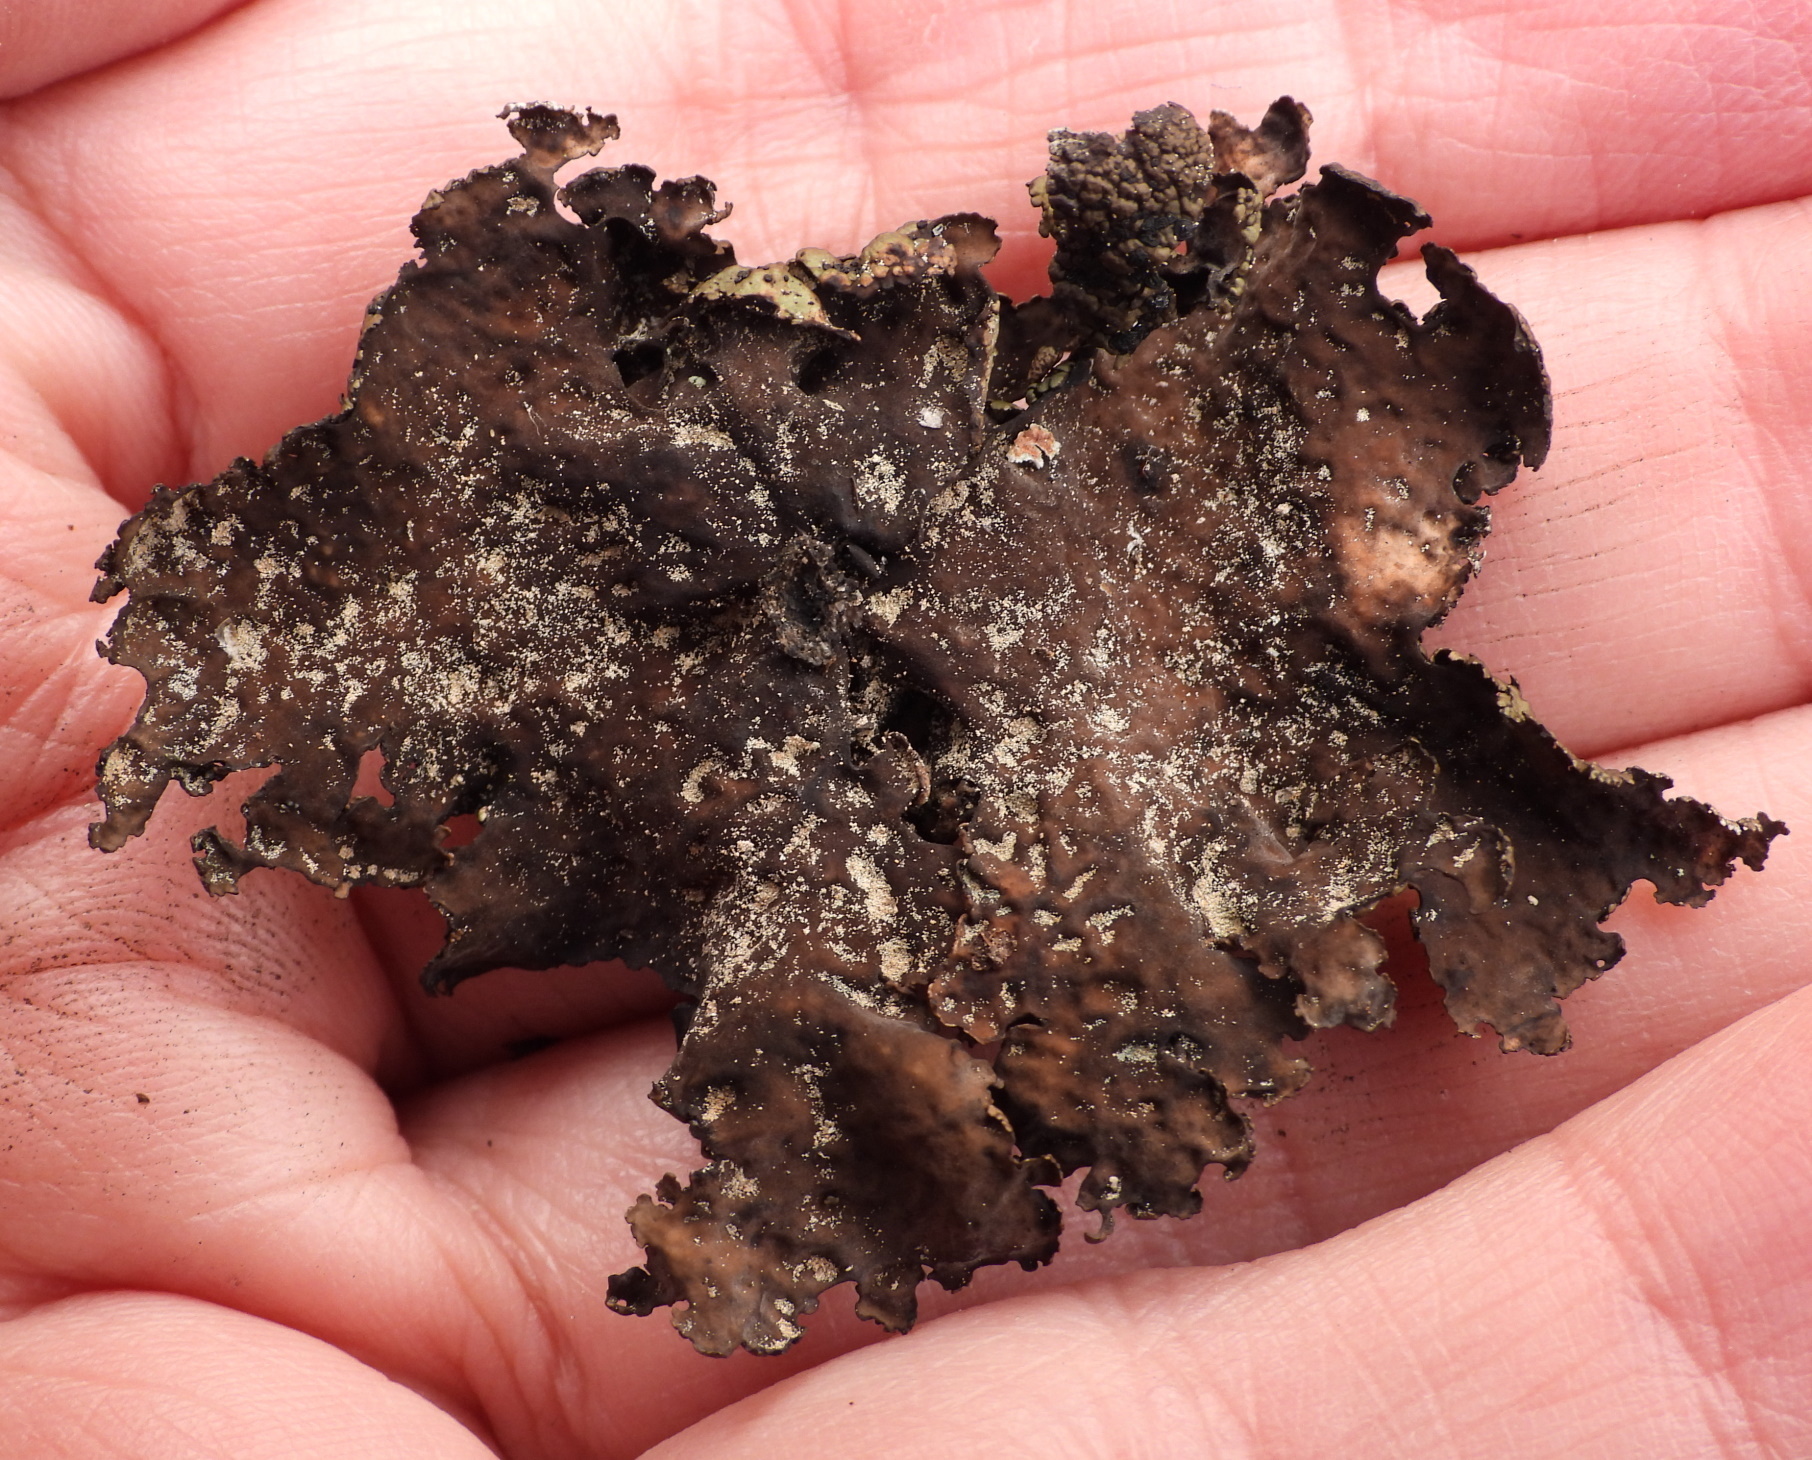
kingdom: Fungi
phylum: Ascomycota
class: Lecanoromycetes
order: Umbilicariales
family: Umbilicariaceae
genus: Umbilicaria
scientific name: Umbilicaria hyperborea
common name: Blistered rock tripe
